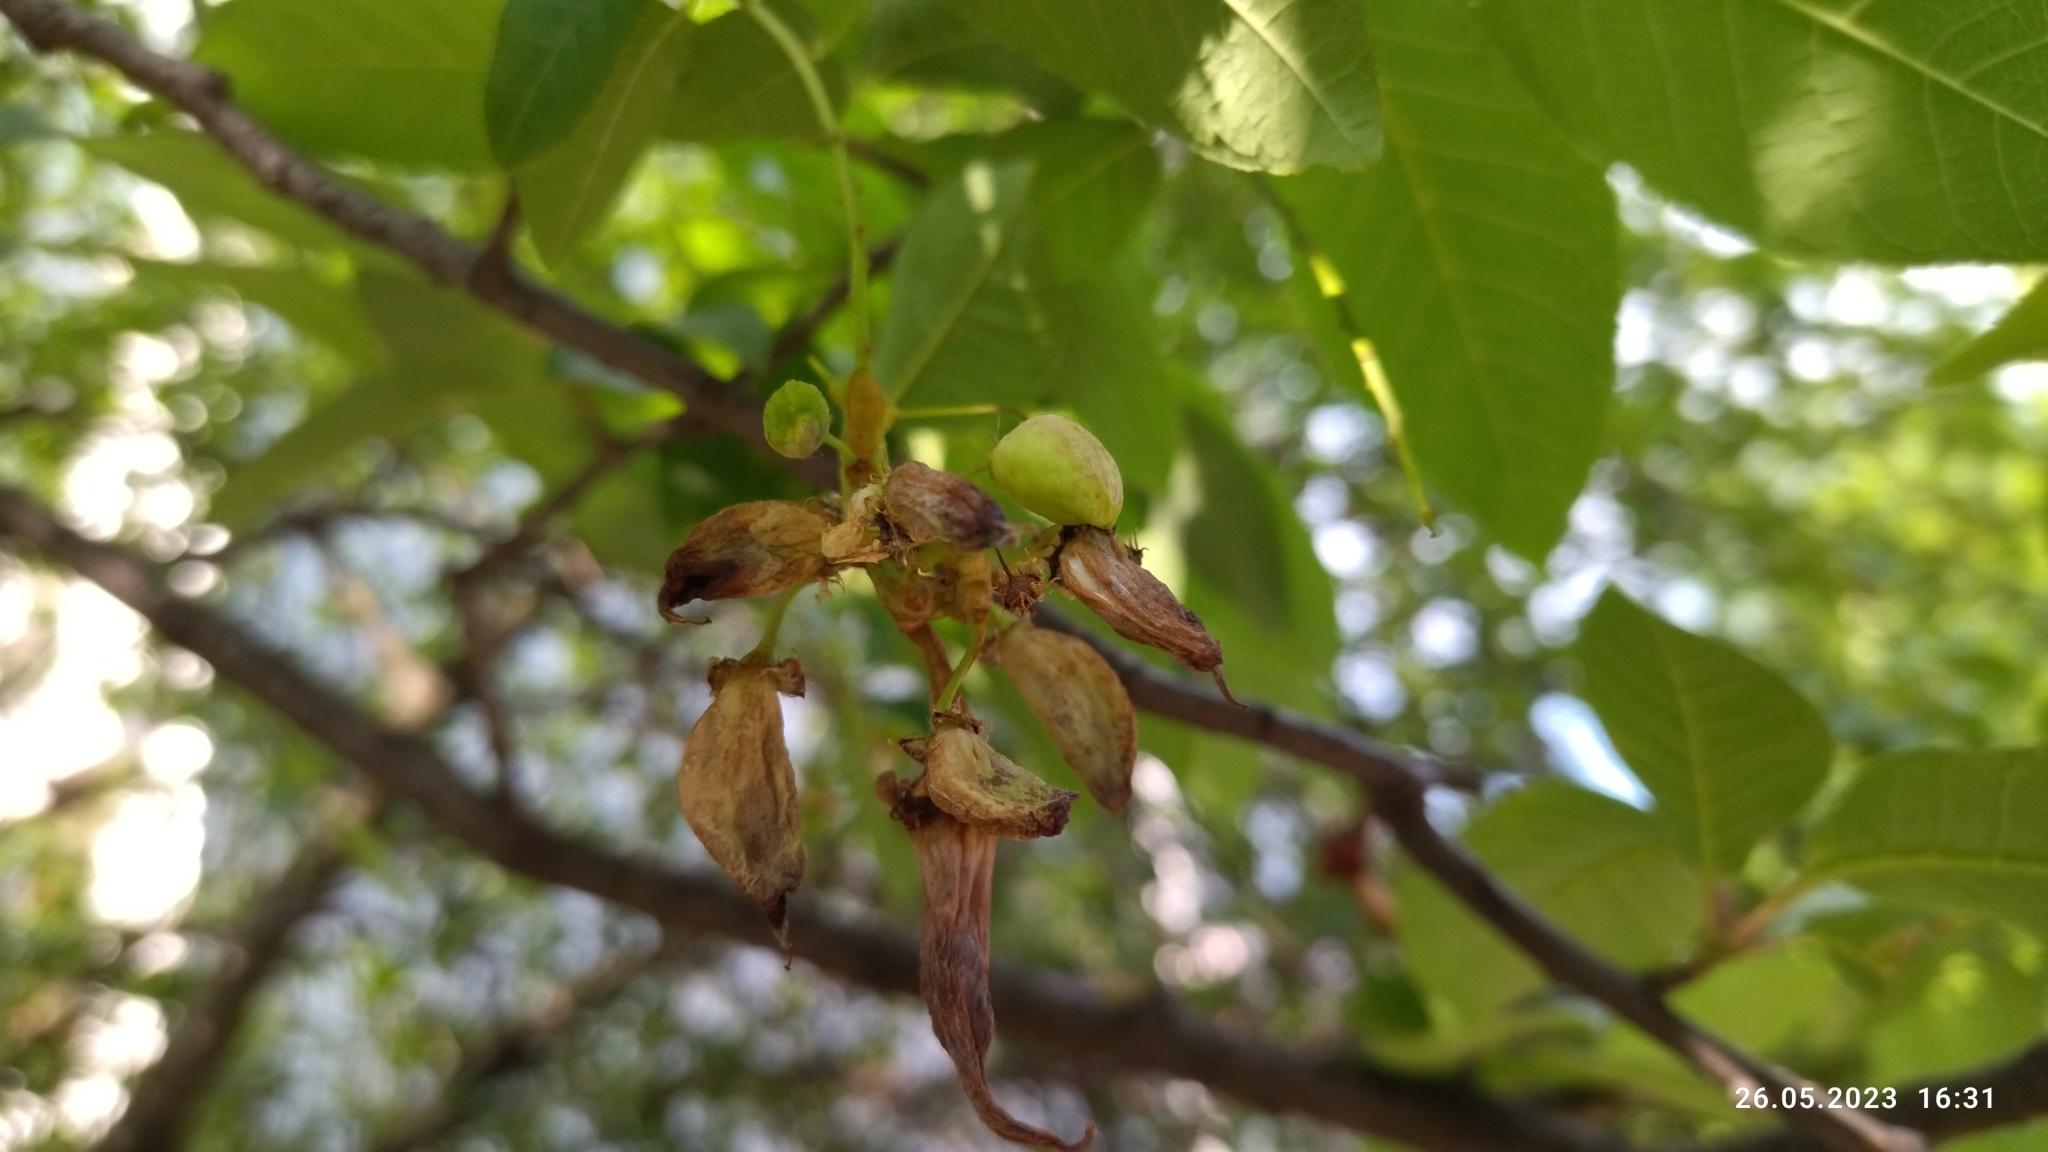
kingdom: Fungi
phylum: Ascomycota
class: Taphrinomycetes
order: Taphrinales
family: Taphrinaceae
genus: Taphrina
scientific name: Taphrina padi
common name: Bird cherry pocket
